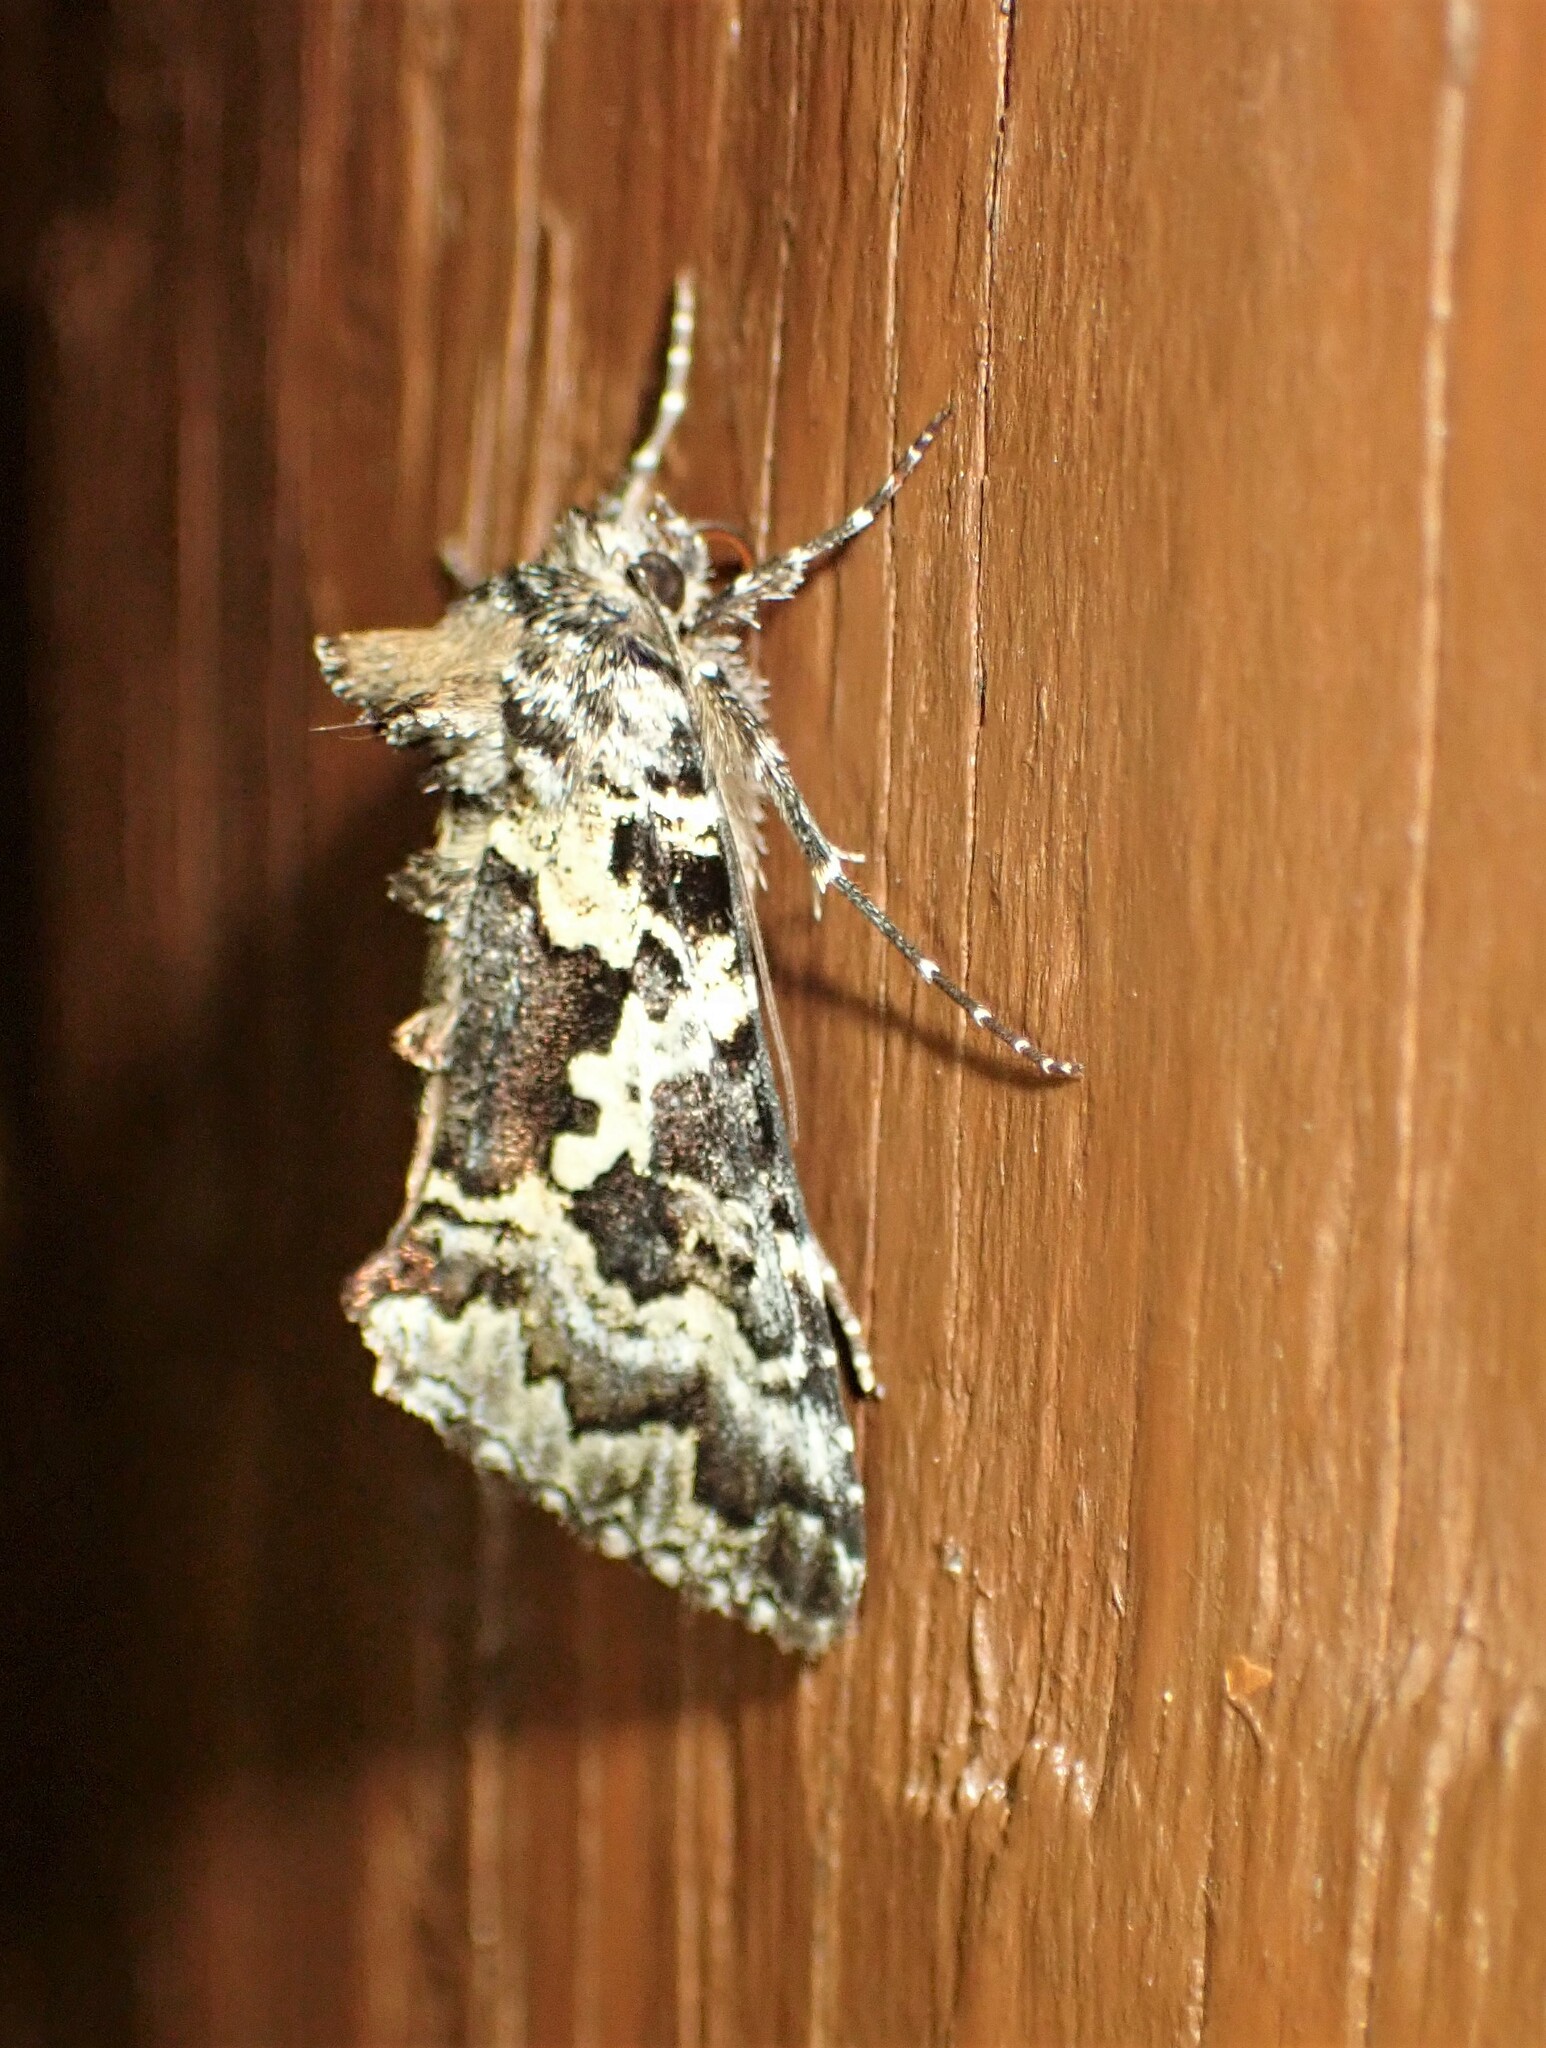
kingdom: Animalia
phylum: Arthropoda
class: Insecta
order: Lepidoptera
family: Noctuidae
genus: Syngrapha
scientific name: Syngrapha rectangula
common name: Angulated cutworm
